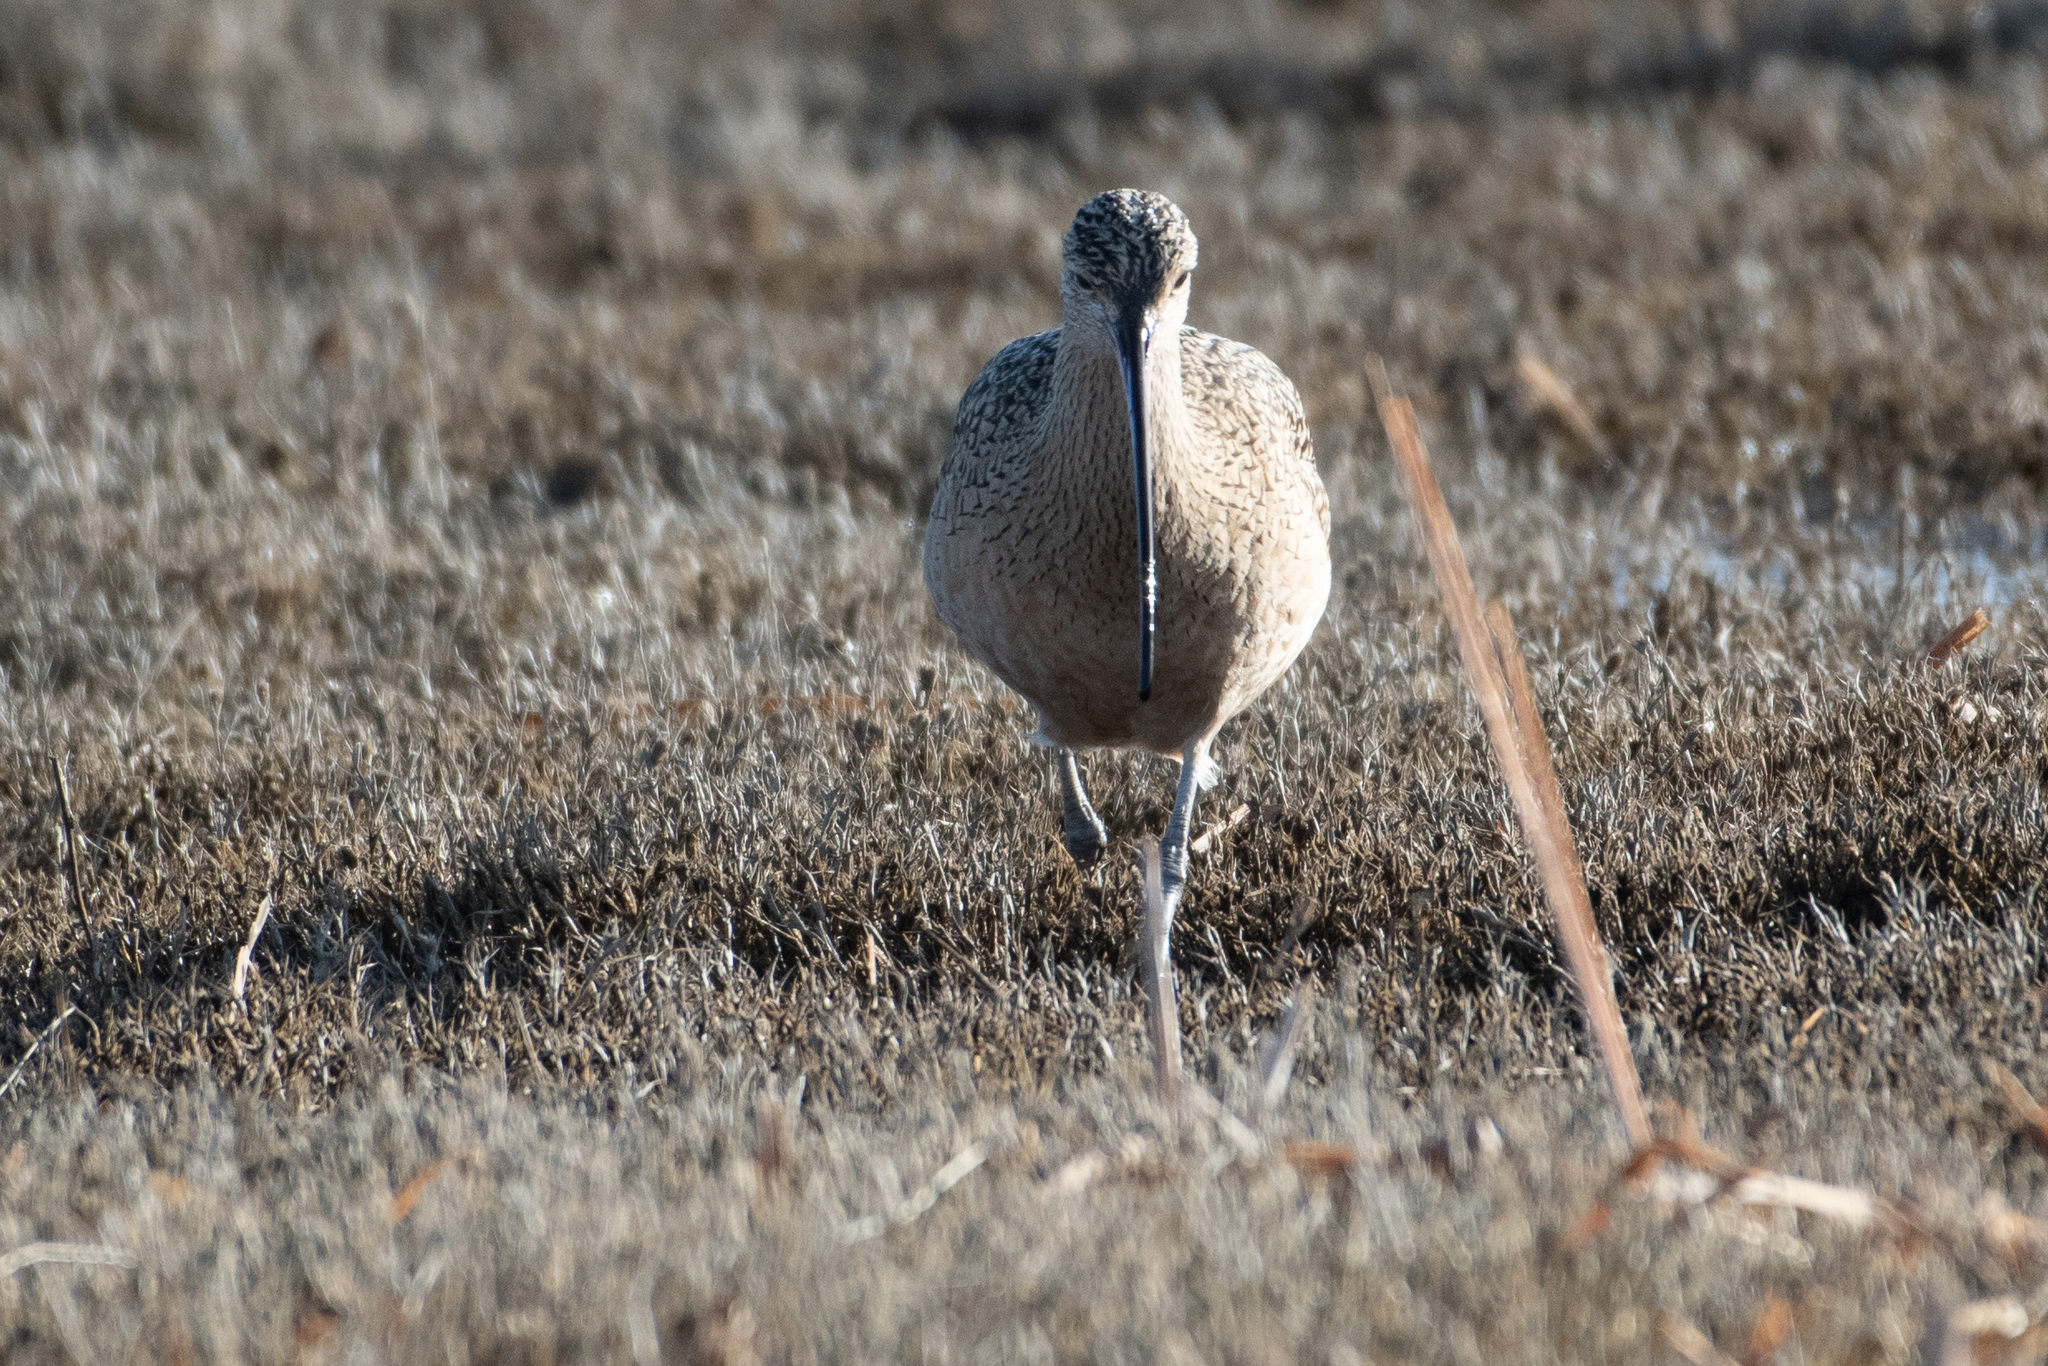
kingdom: Animalia
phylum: Chordata
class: Aves
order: Charadriiformes
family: Scolopacidae
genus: Numenius
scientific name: Numenius americanus
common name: Long-billed curlew
